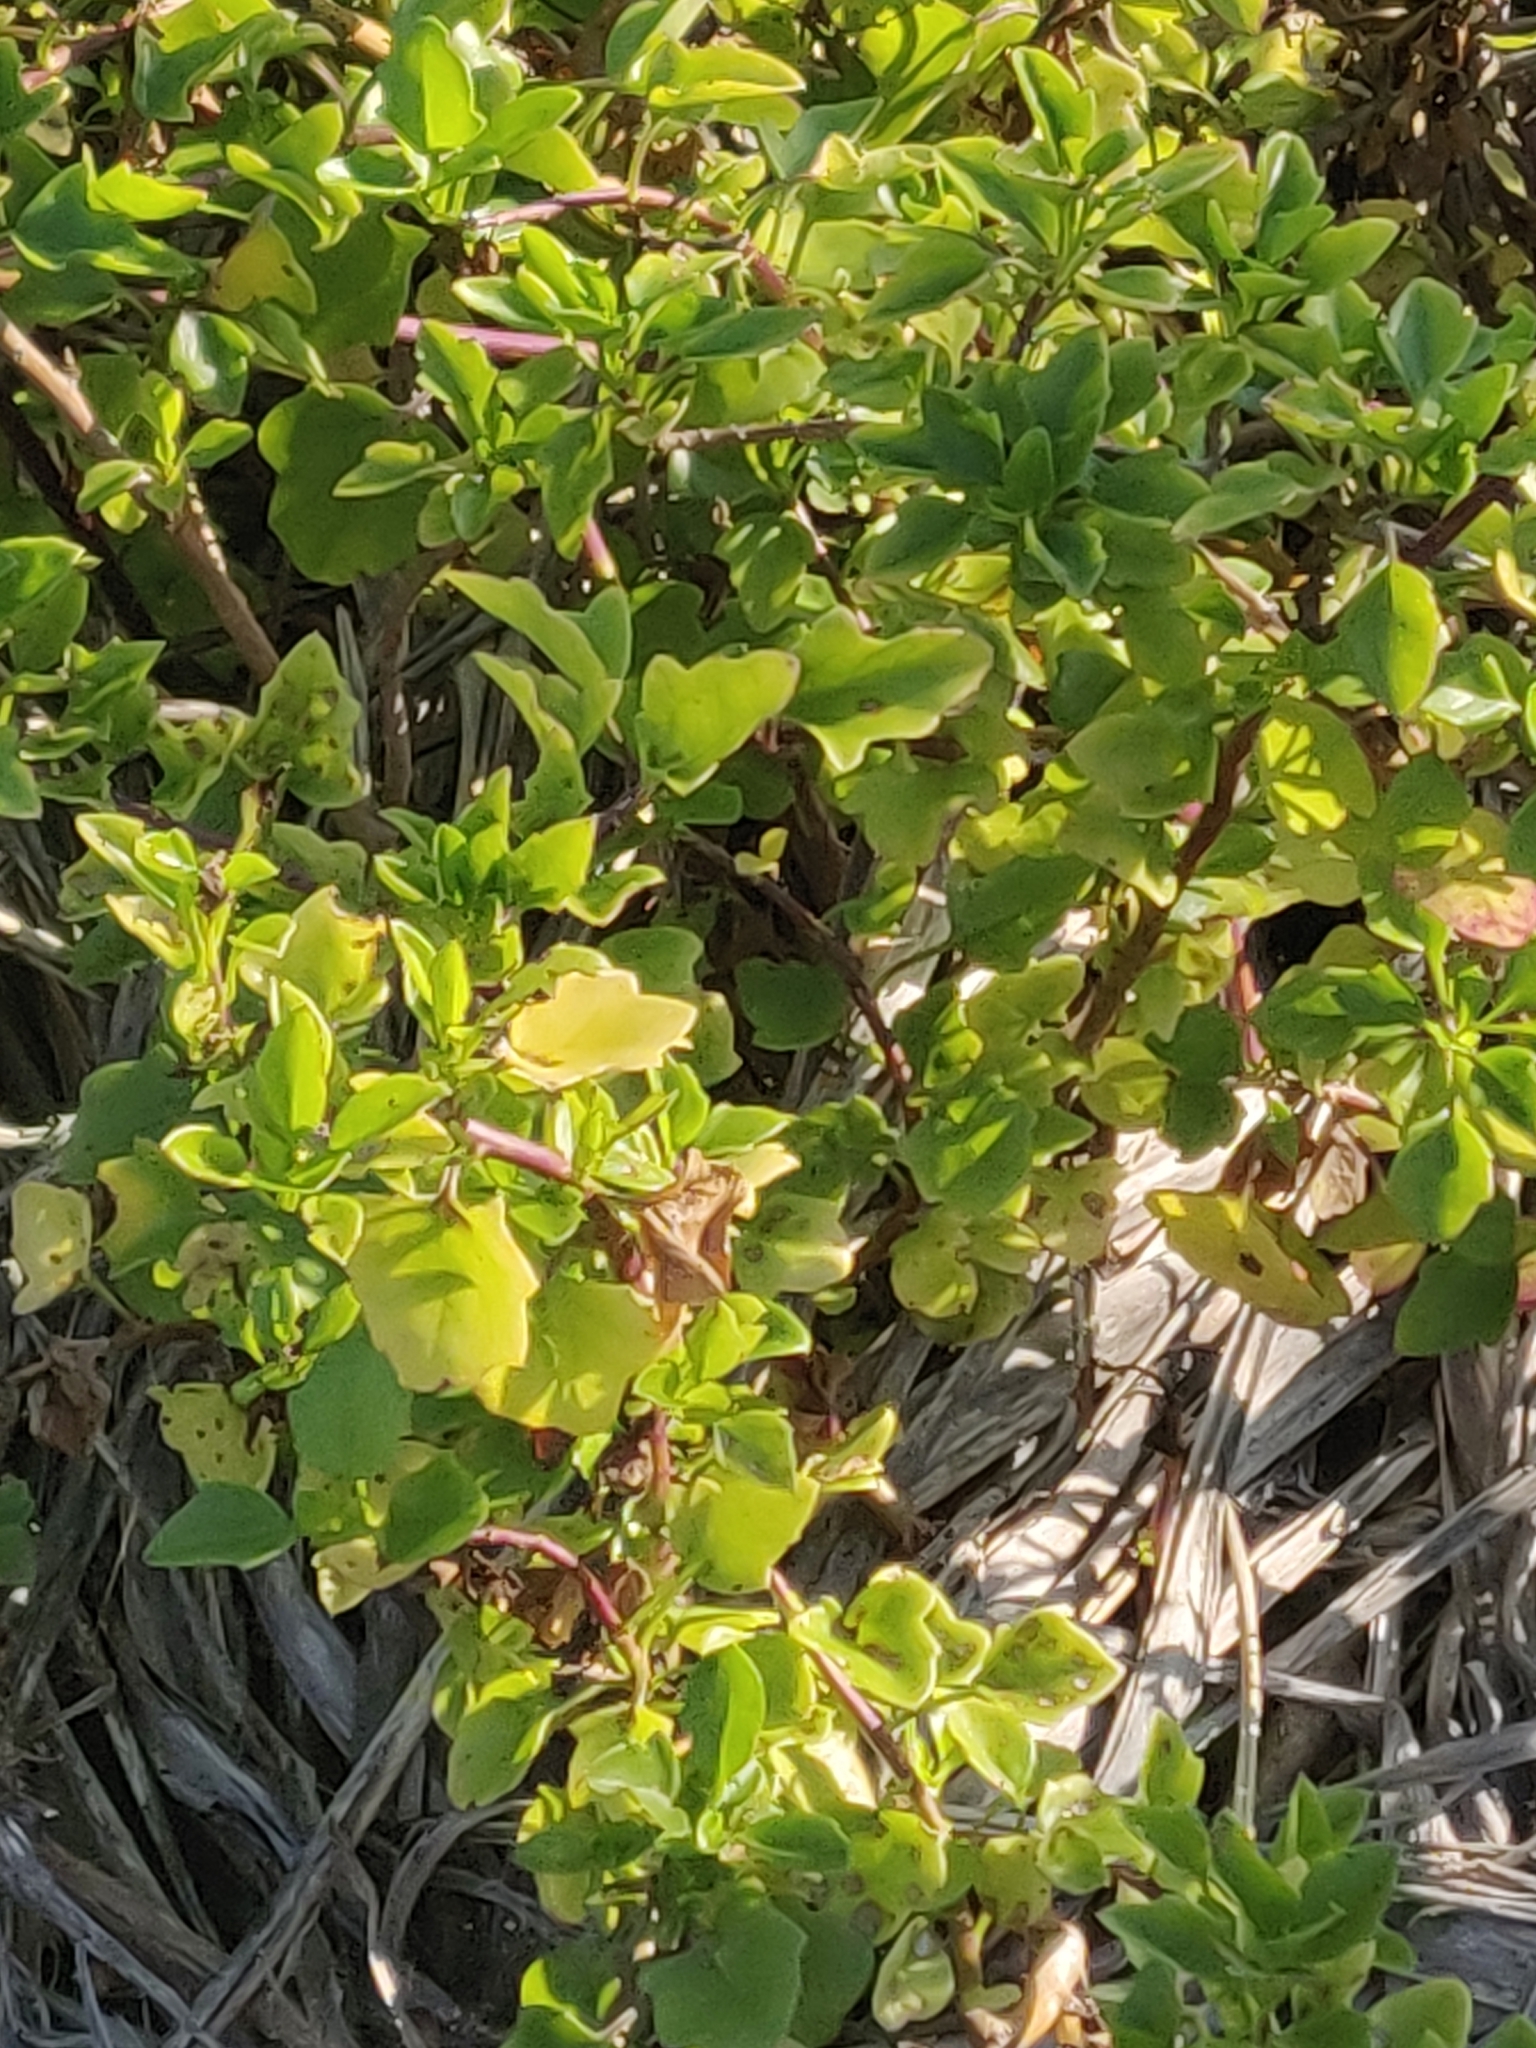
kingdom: Plantae
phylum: Tracheophyta
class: Magnoliopsida
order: Asterales
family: Asteraceae
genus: Senecio
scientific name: Senecio angulatus
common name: Climbing groundsel
